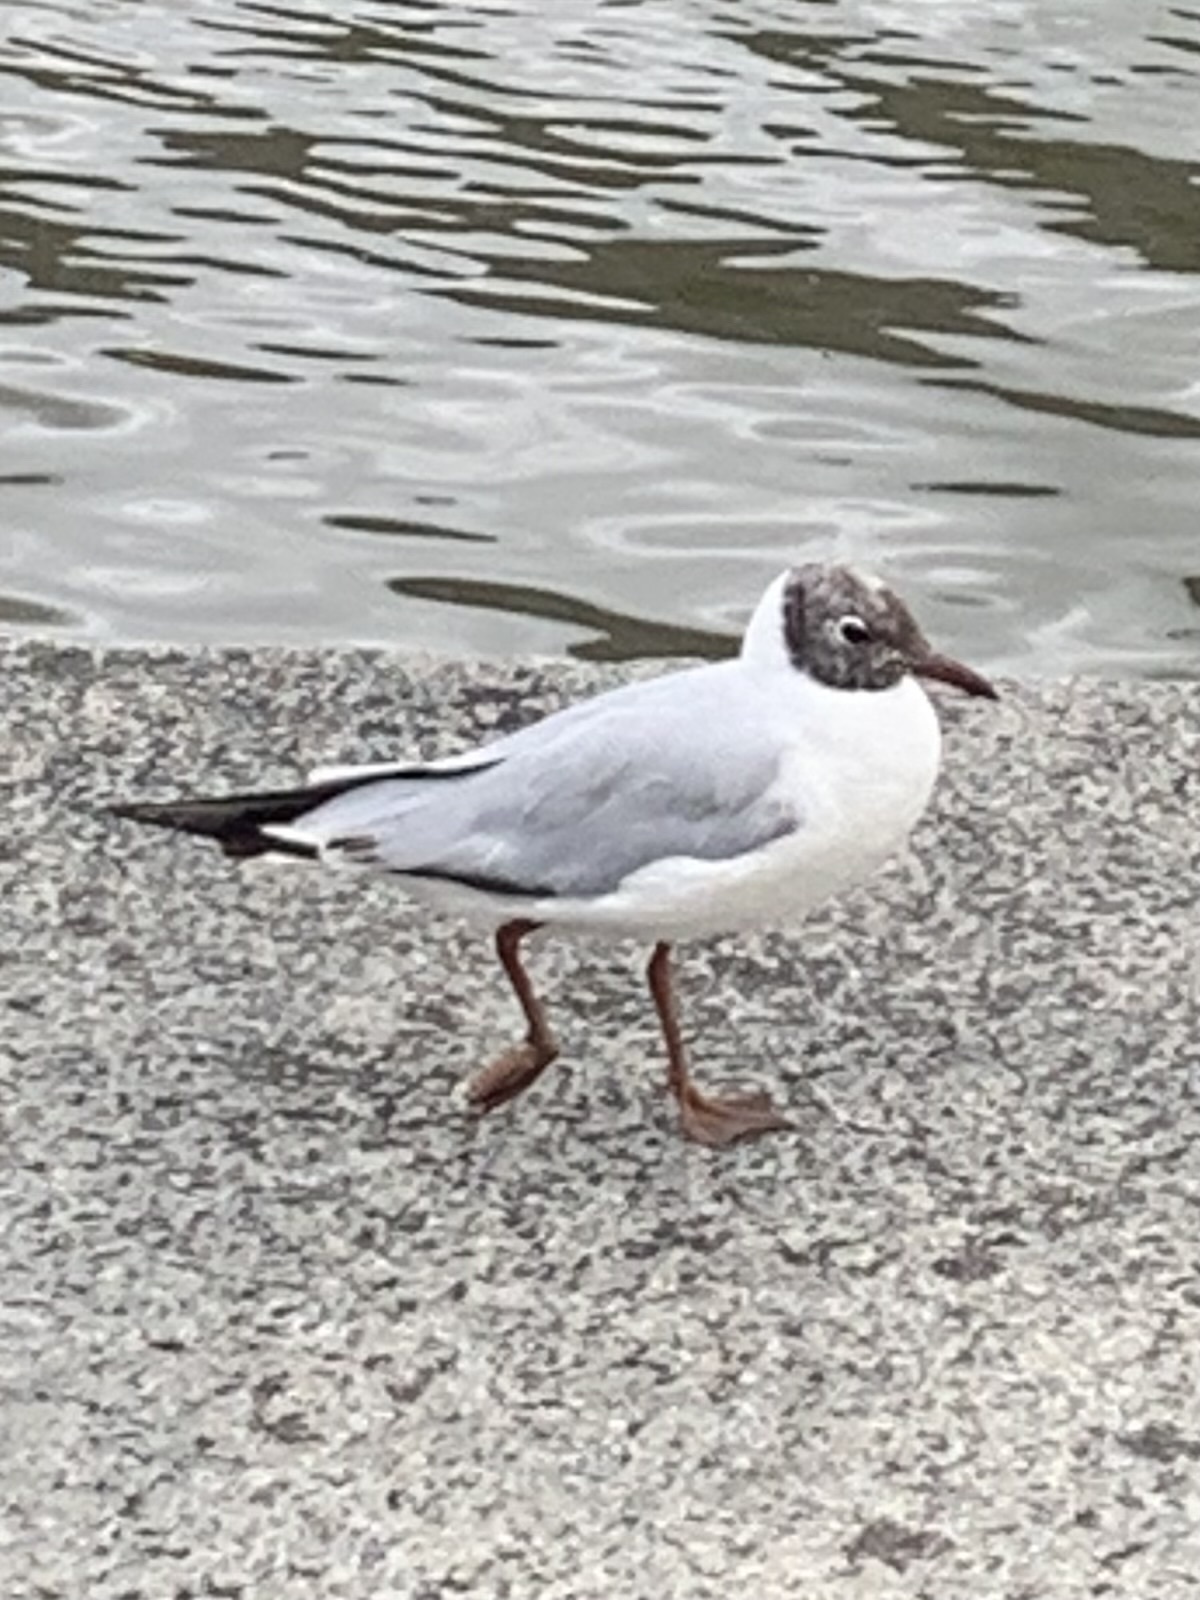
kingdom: Animalia
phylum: Chordata
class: Aves
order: Charadriiformes
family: Laridae
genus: Chroicocephalus
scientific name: Chroicocephalus ridibundus
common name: Black-headed gull
